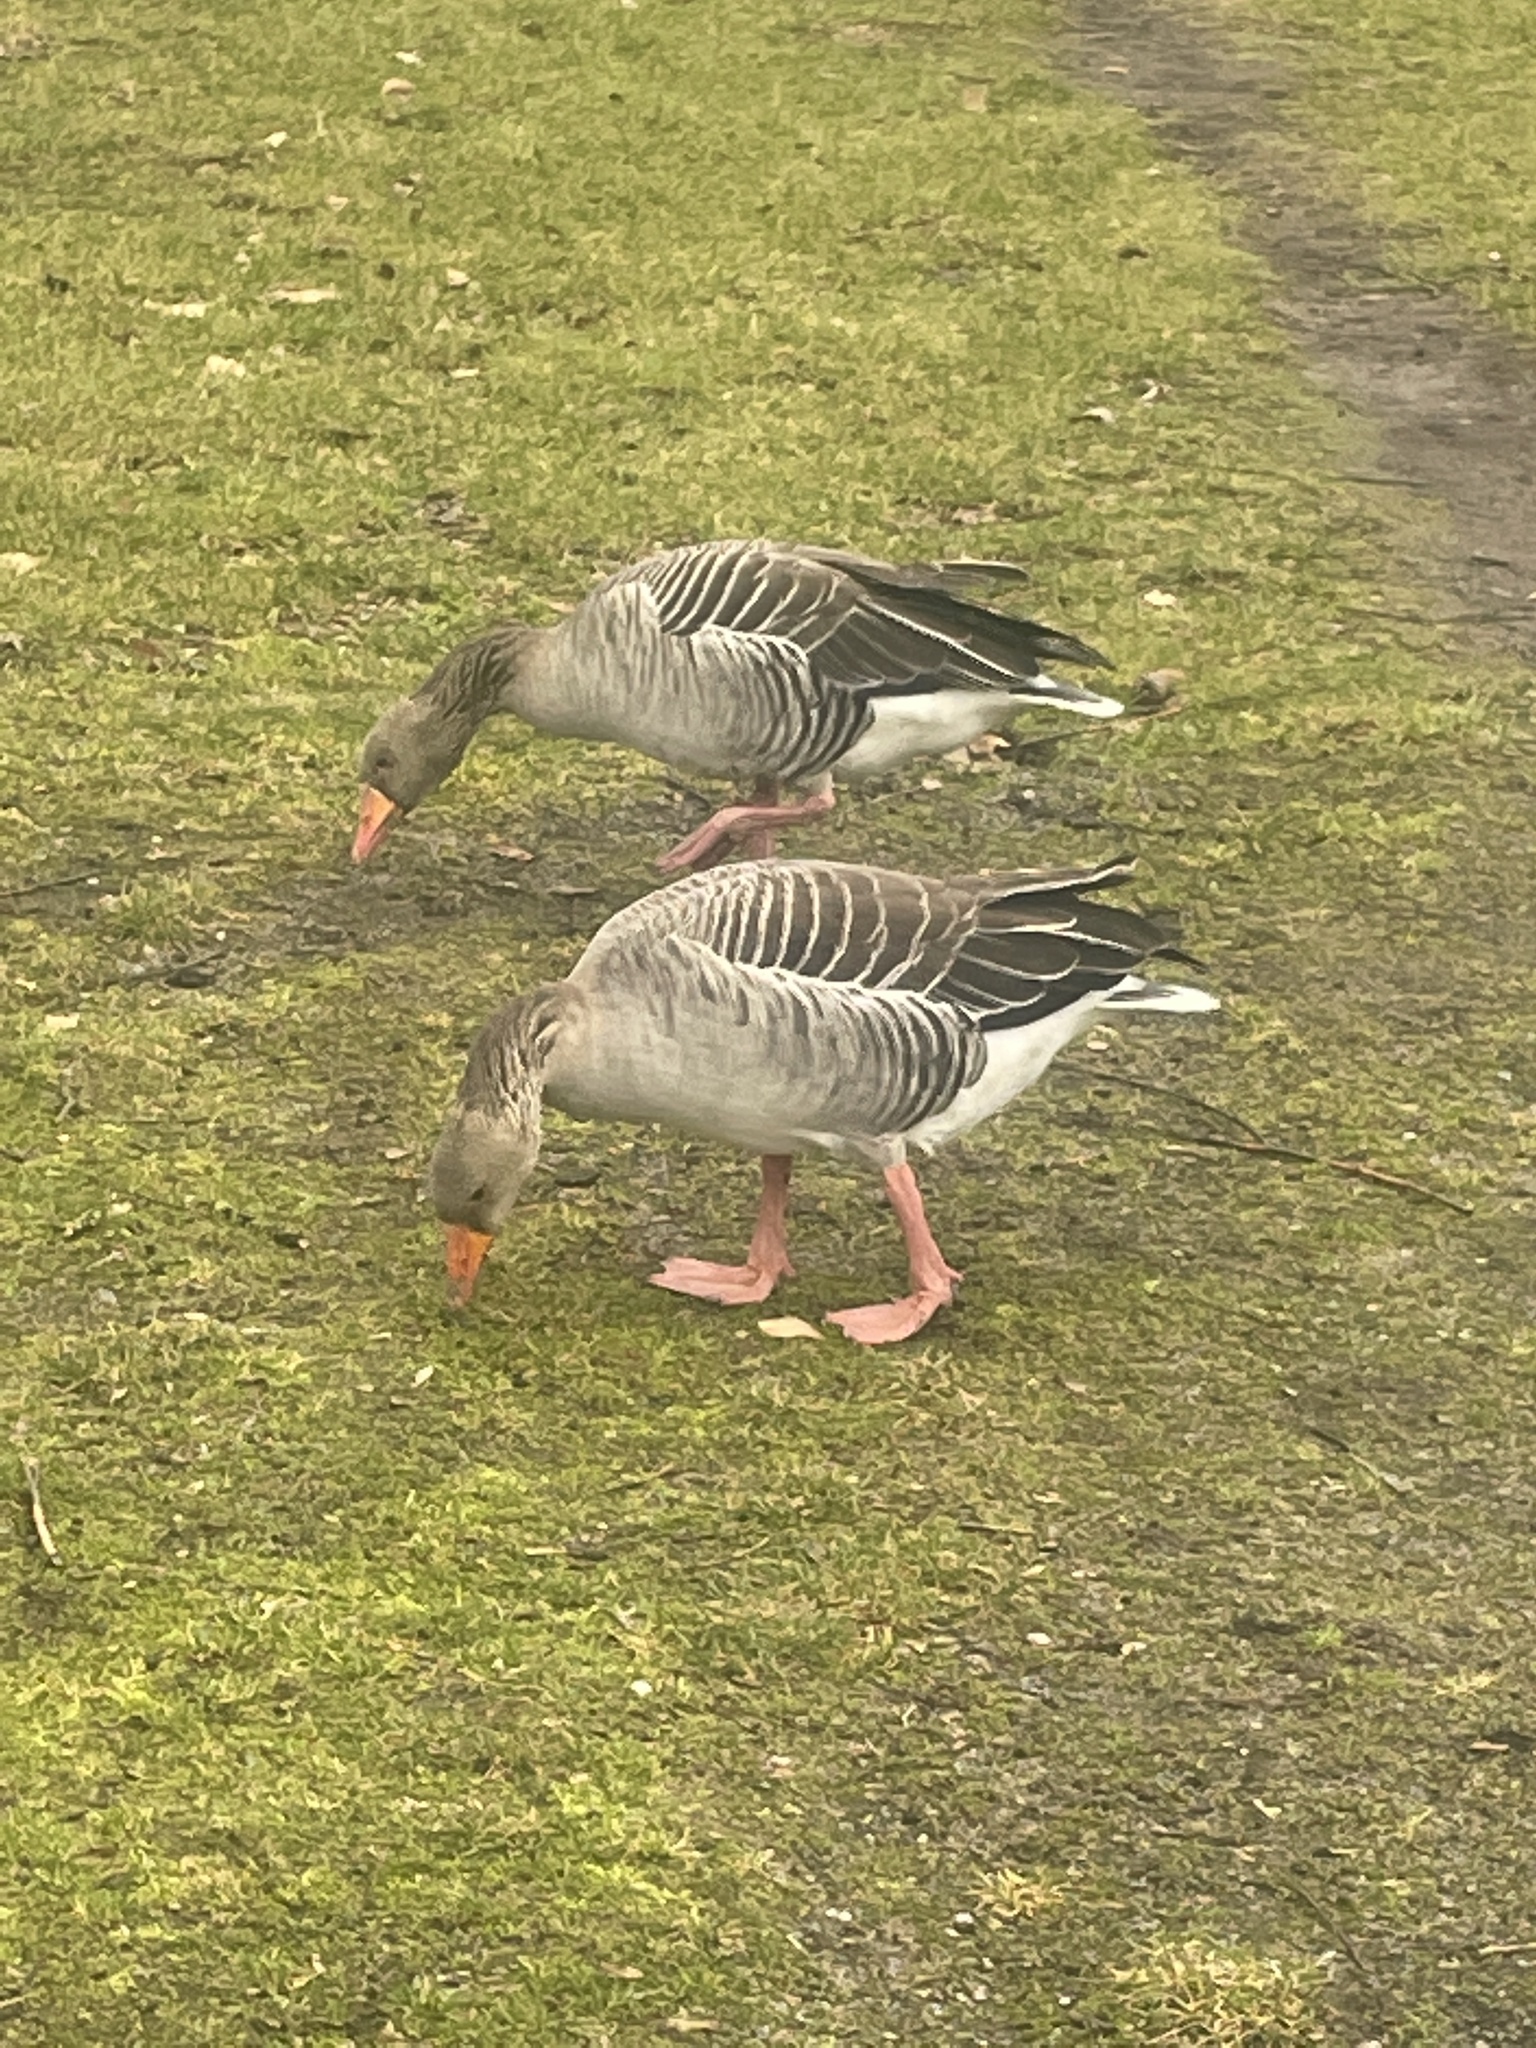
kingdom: Animalia
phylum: Chordata
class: Aves
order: Anseriformes
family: Anatidae
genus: Anser
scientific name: Anser anser
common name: Greylag goose
